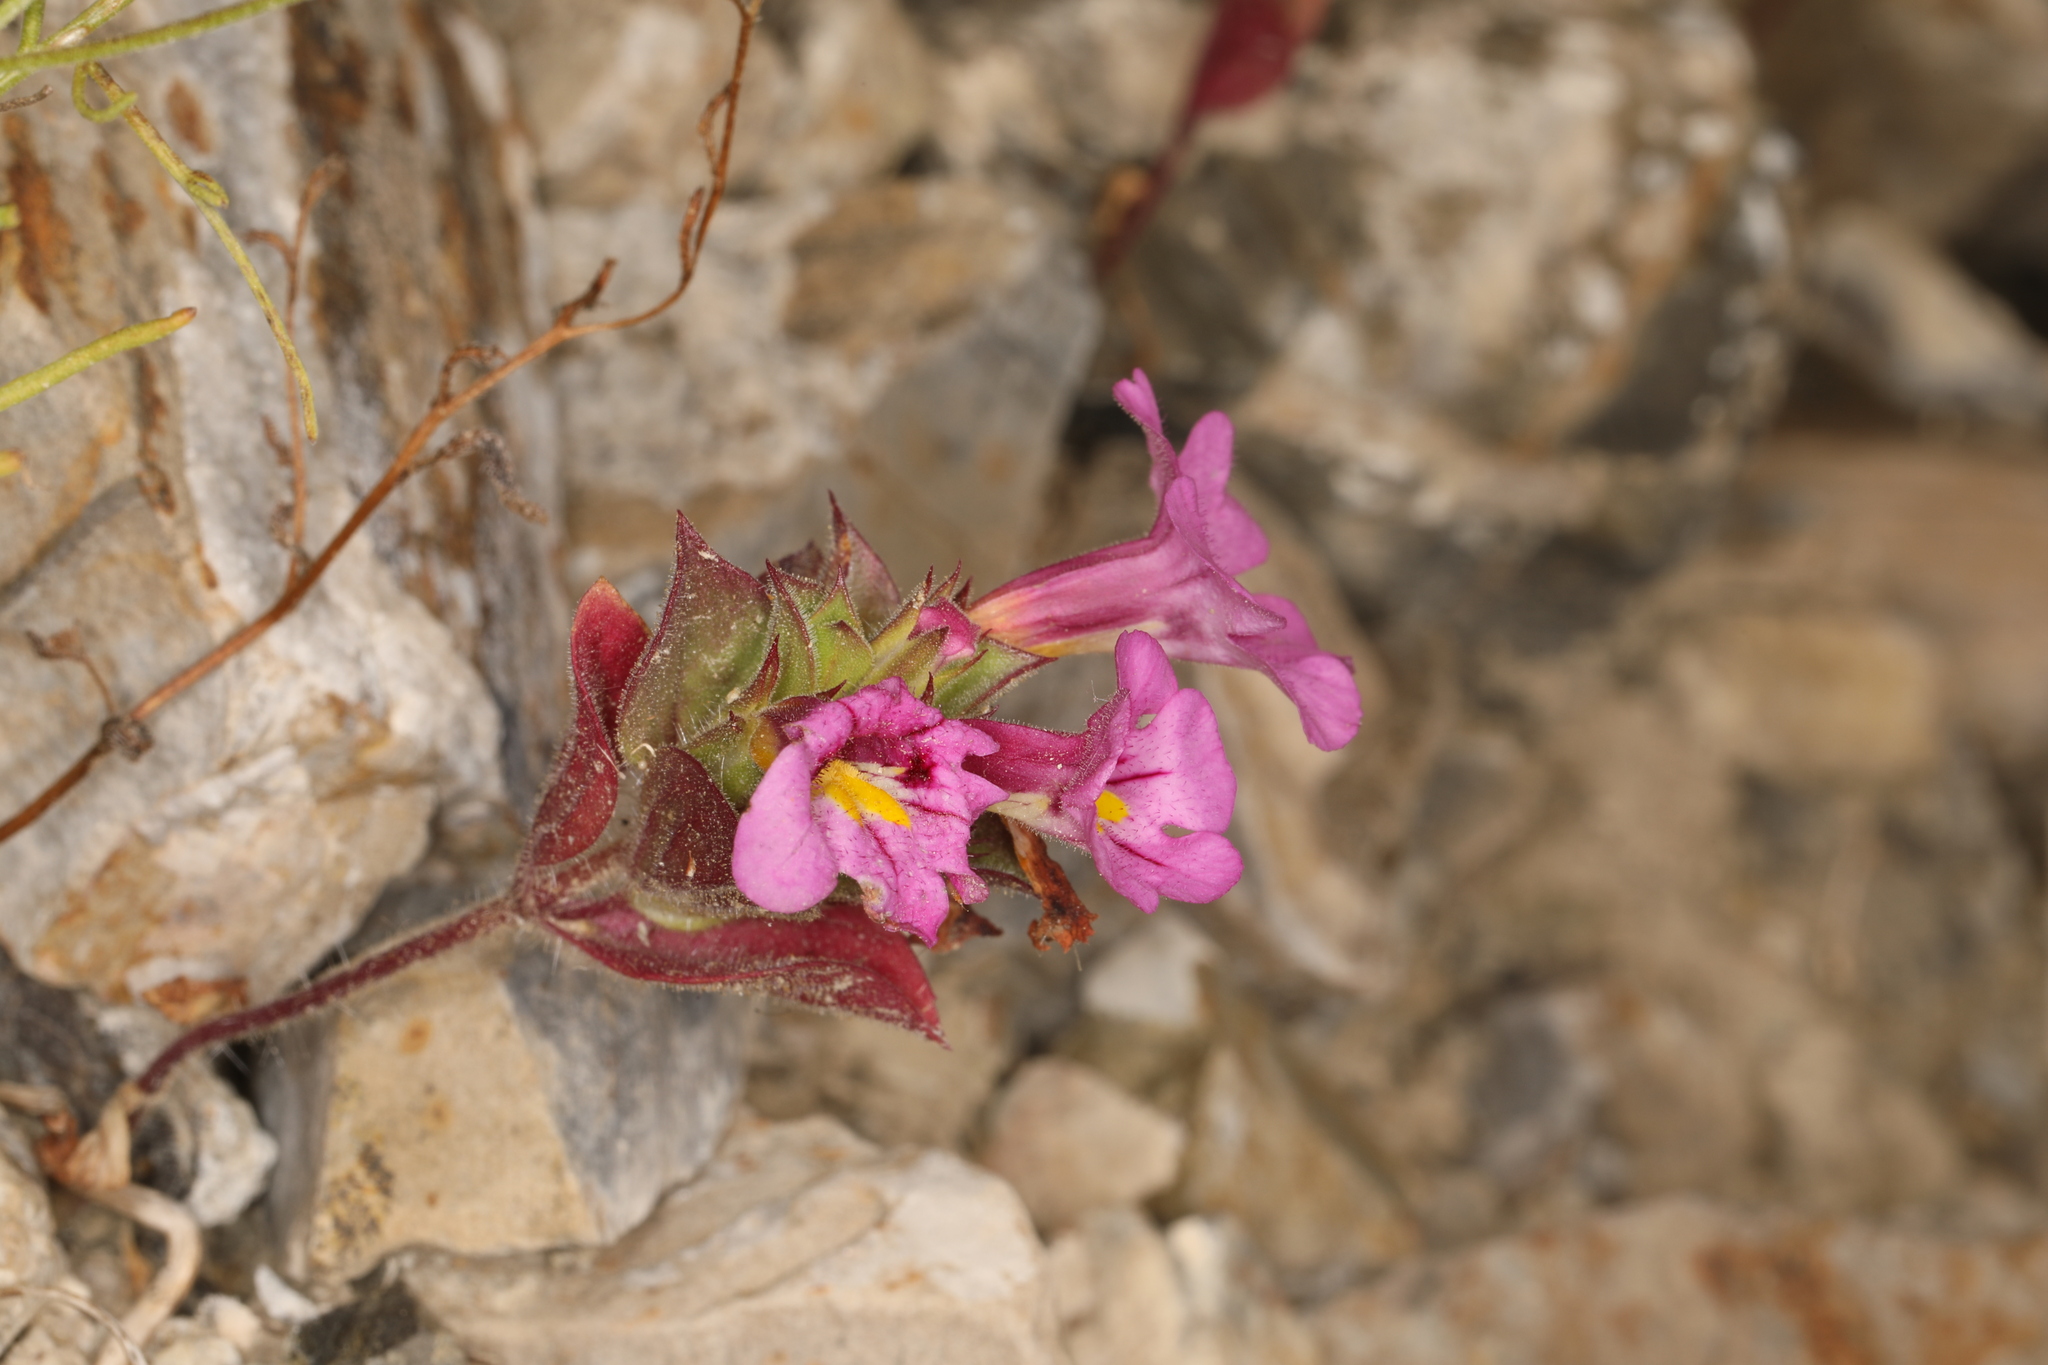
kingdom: Plantae
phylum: Tracheophyta
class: Magnoliopsida
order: Lamiales
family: Phrymaceae
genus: Diplacus
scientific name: Diplacus bigelovii
